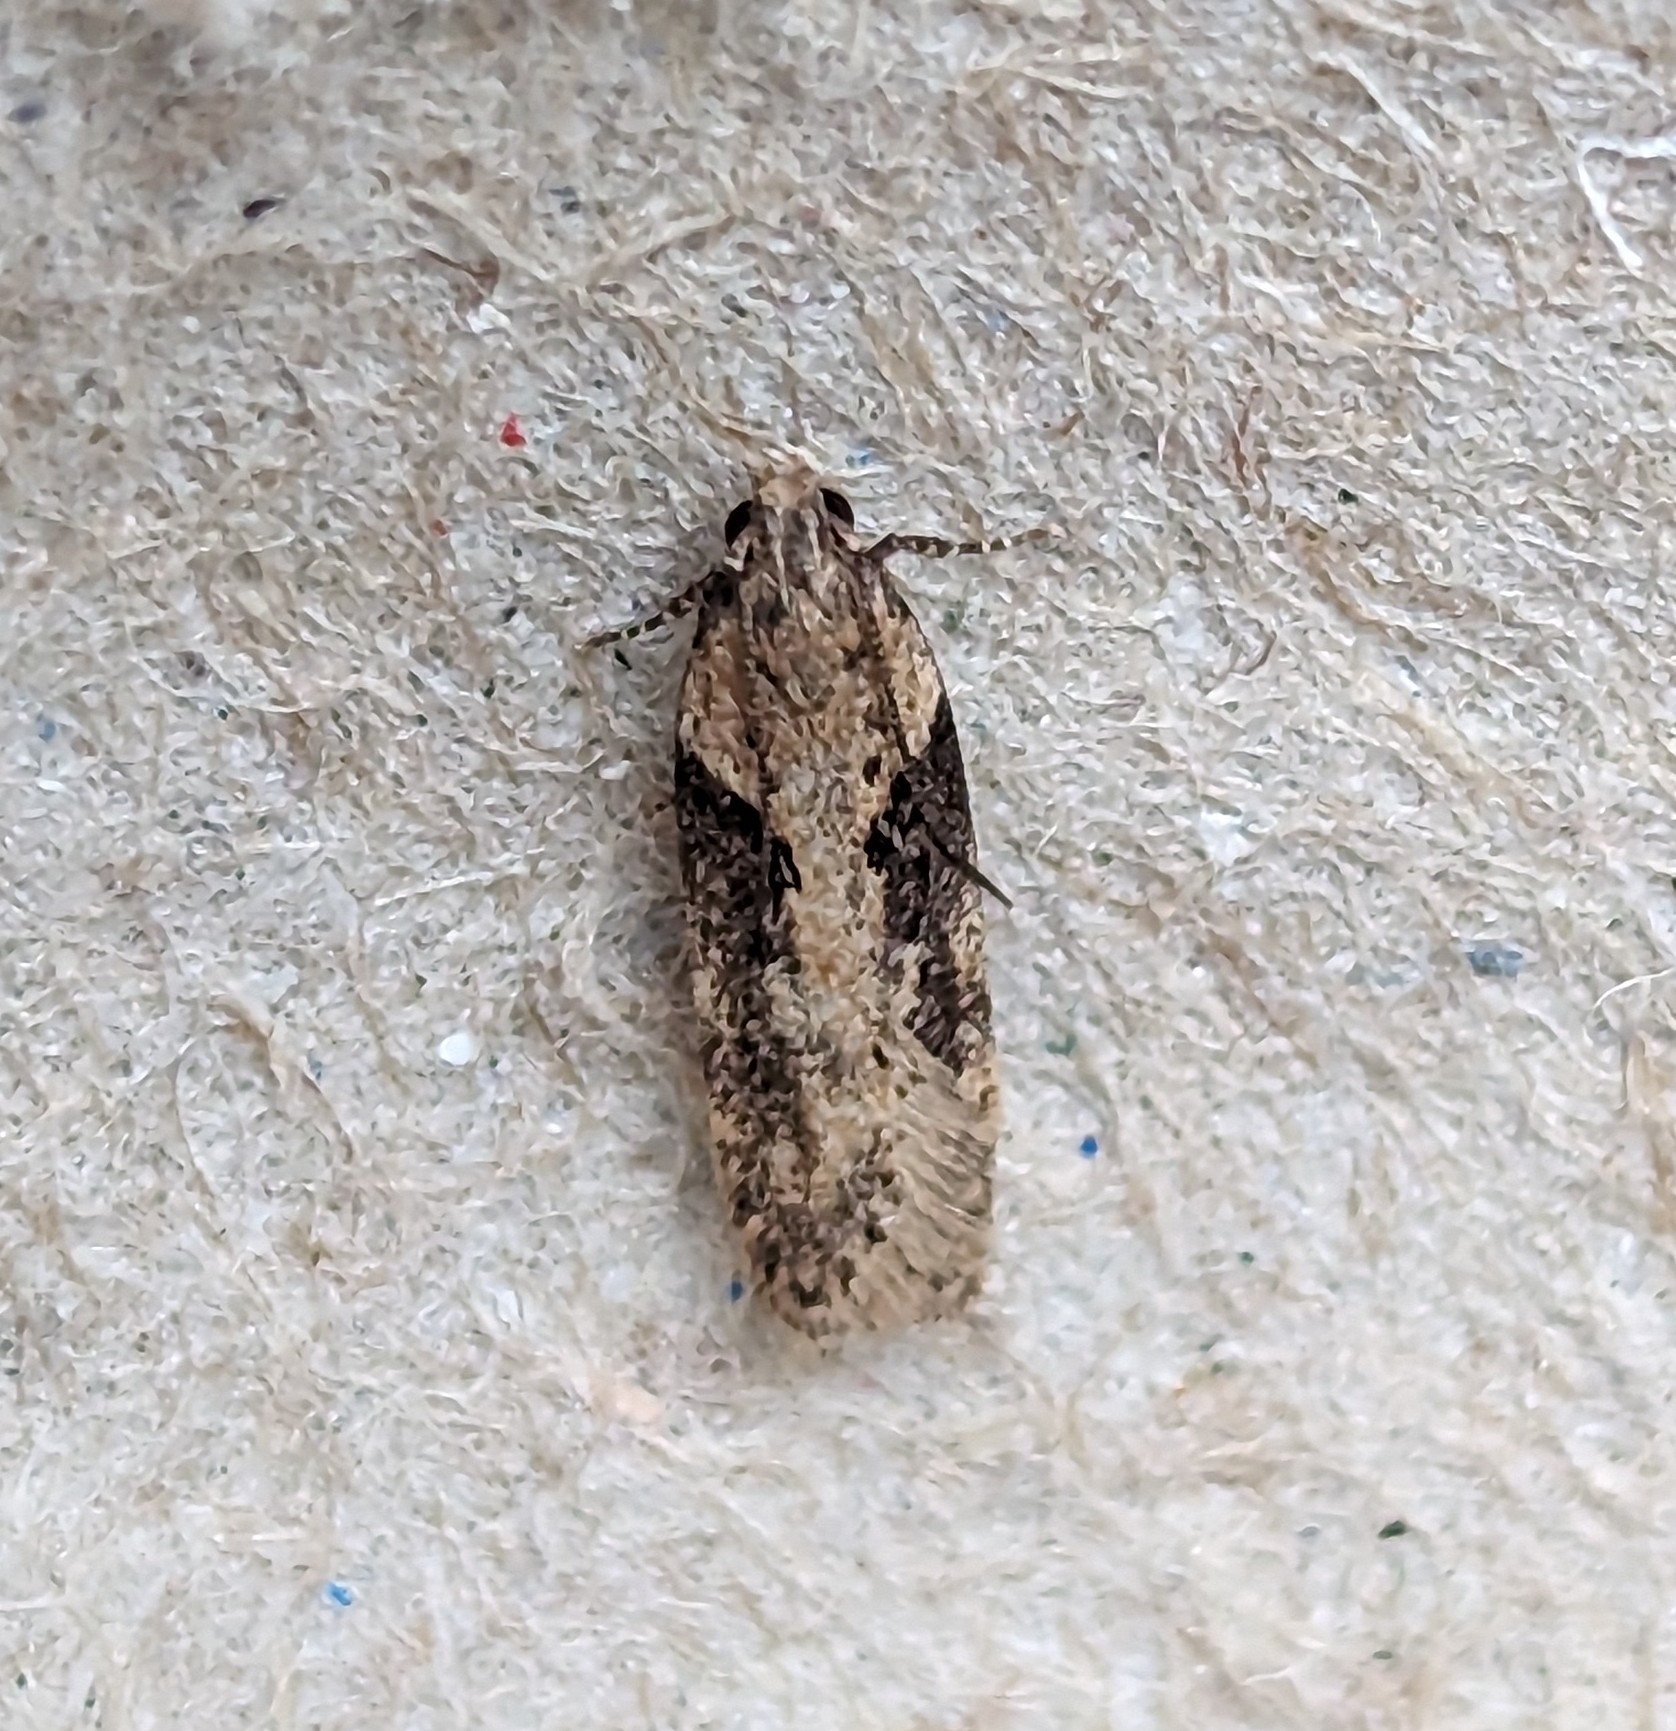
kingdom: Animalia
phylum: Arthropoda
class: Insecta
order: Lepidoptera
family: Gelechiidae
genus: Chionodes
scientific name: Chionodes mediofuscella
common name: Black-smudged chionodes moth
